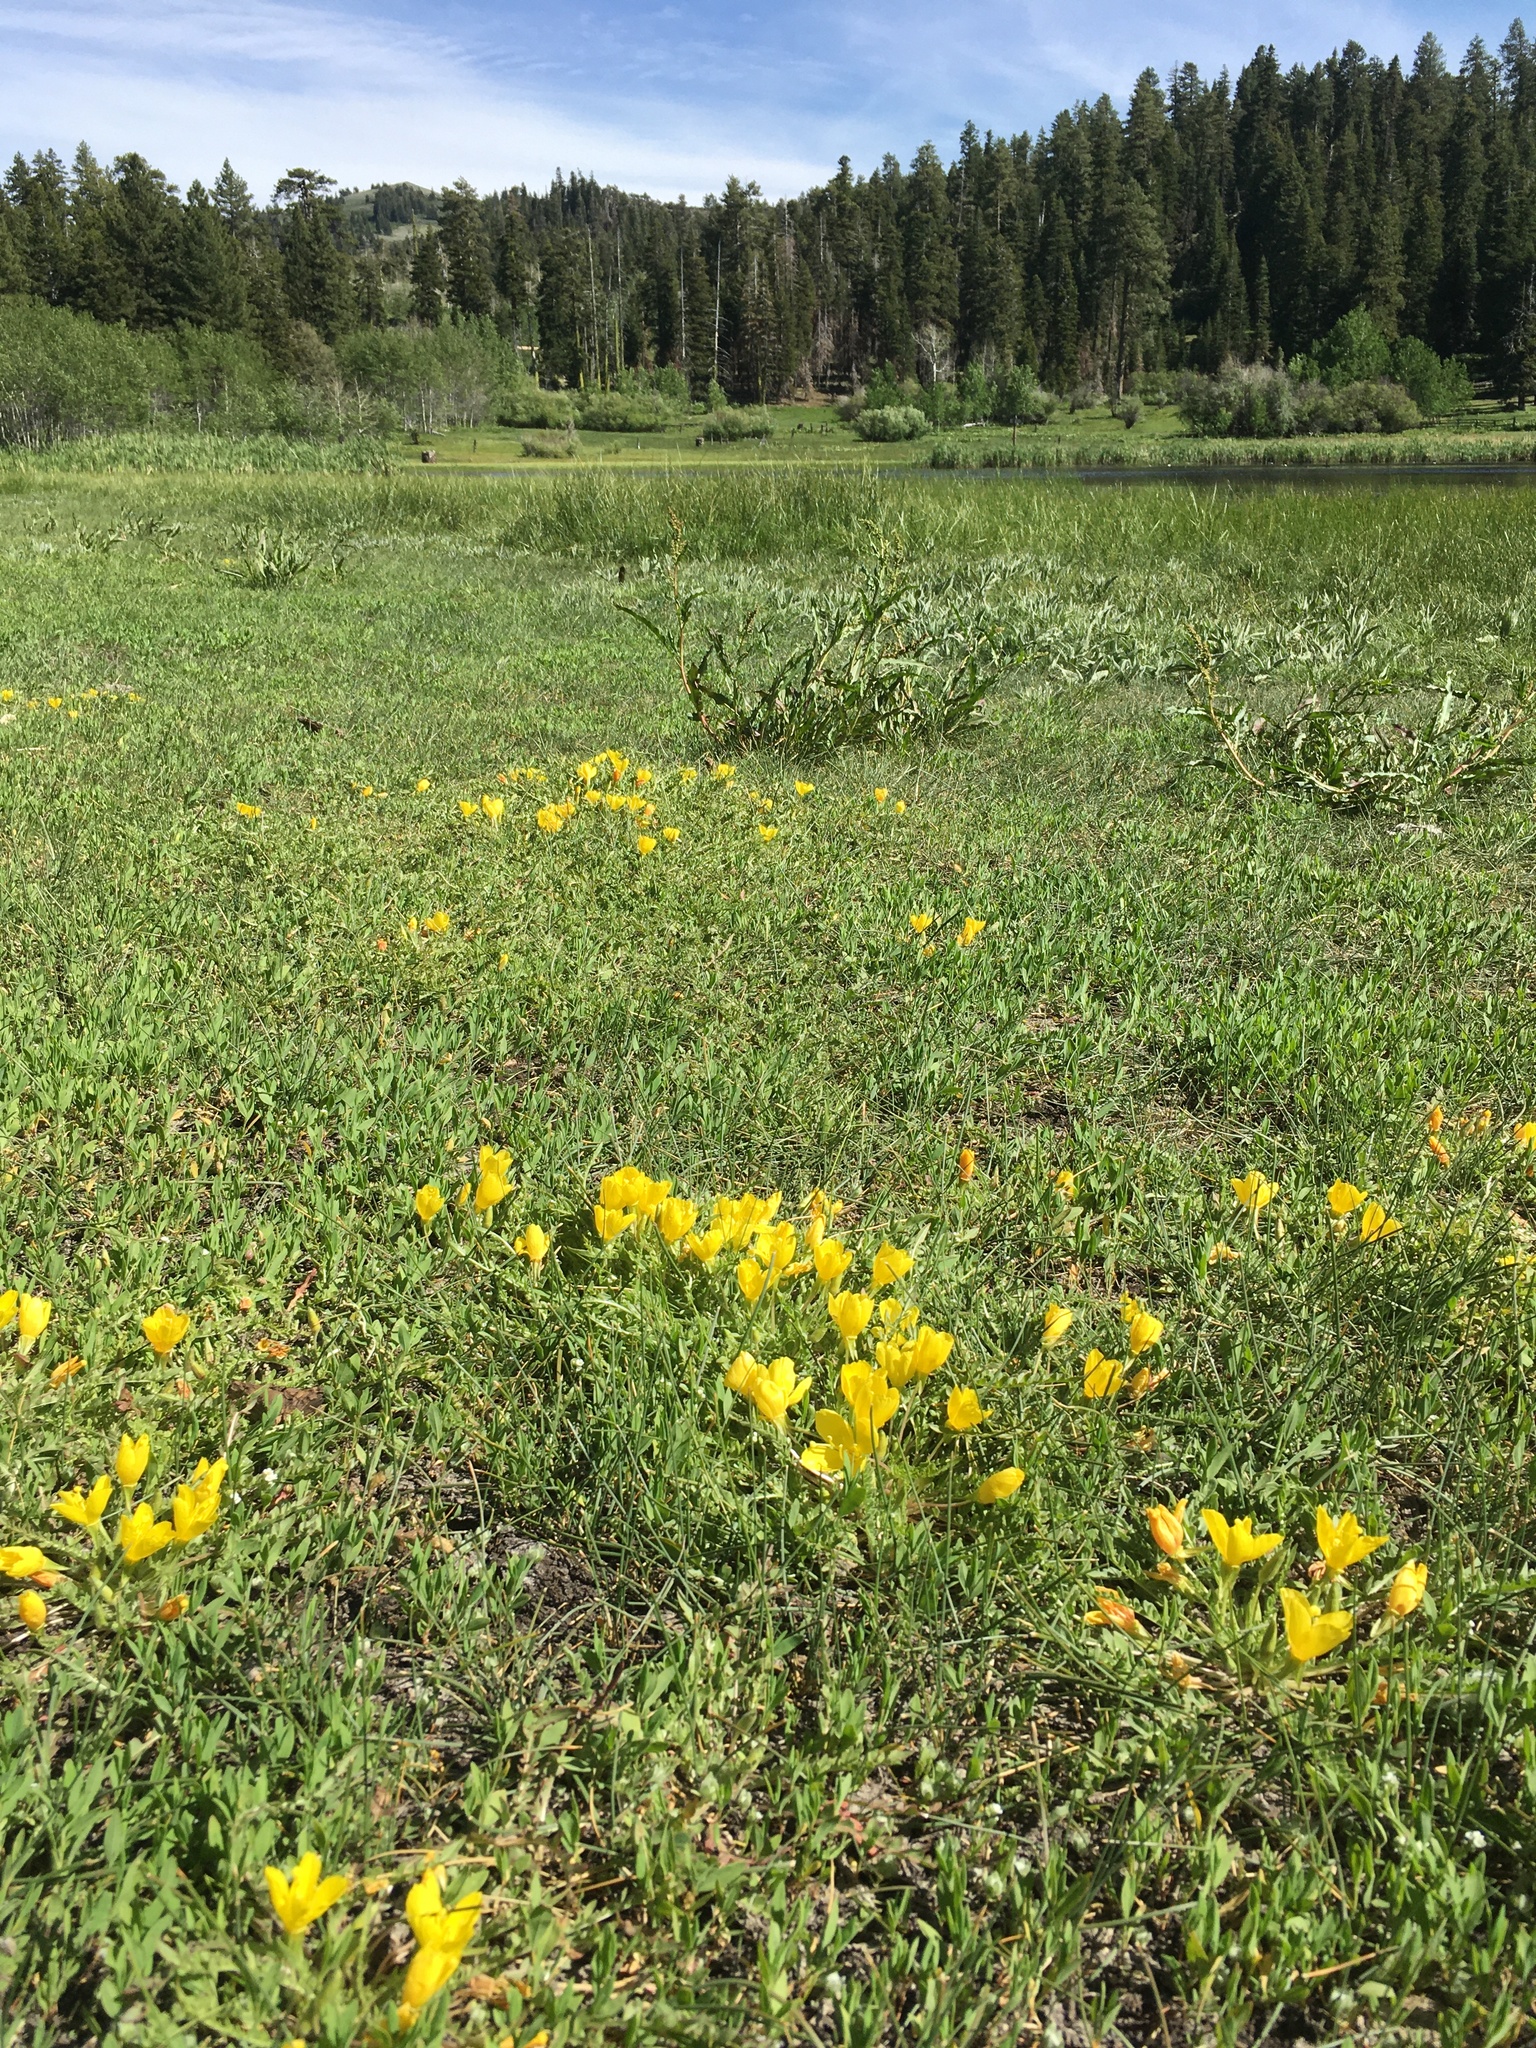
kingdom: Plantae
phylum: Tracheophyta
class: Magnoliopsida
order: Myrtales
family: Onagraceae
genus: Taraxia
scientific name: Taraxia tanacetifolia
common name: Tansyleaf evening primrose
